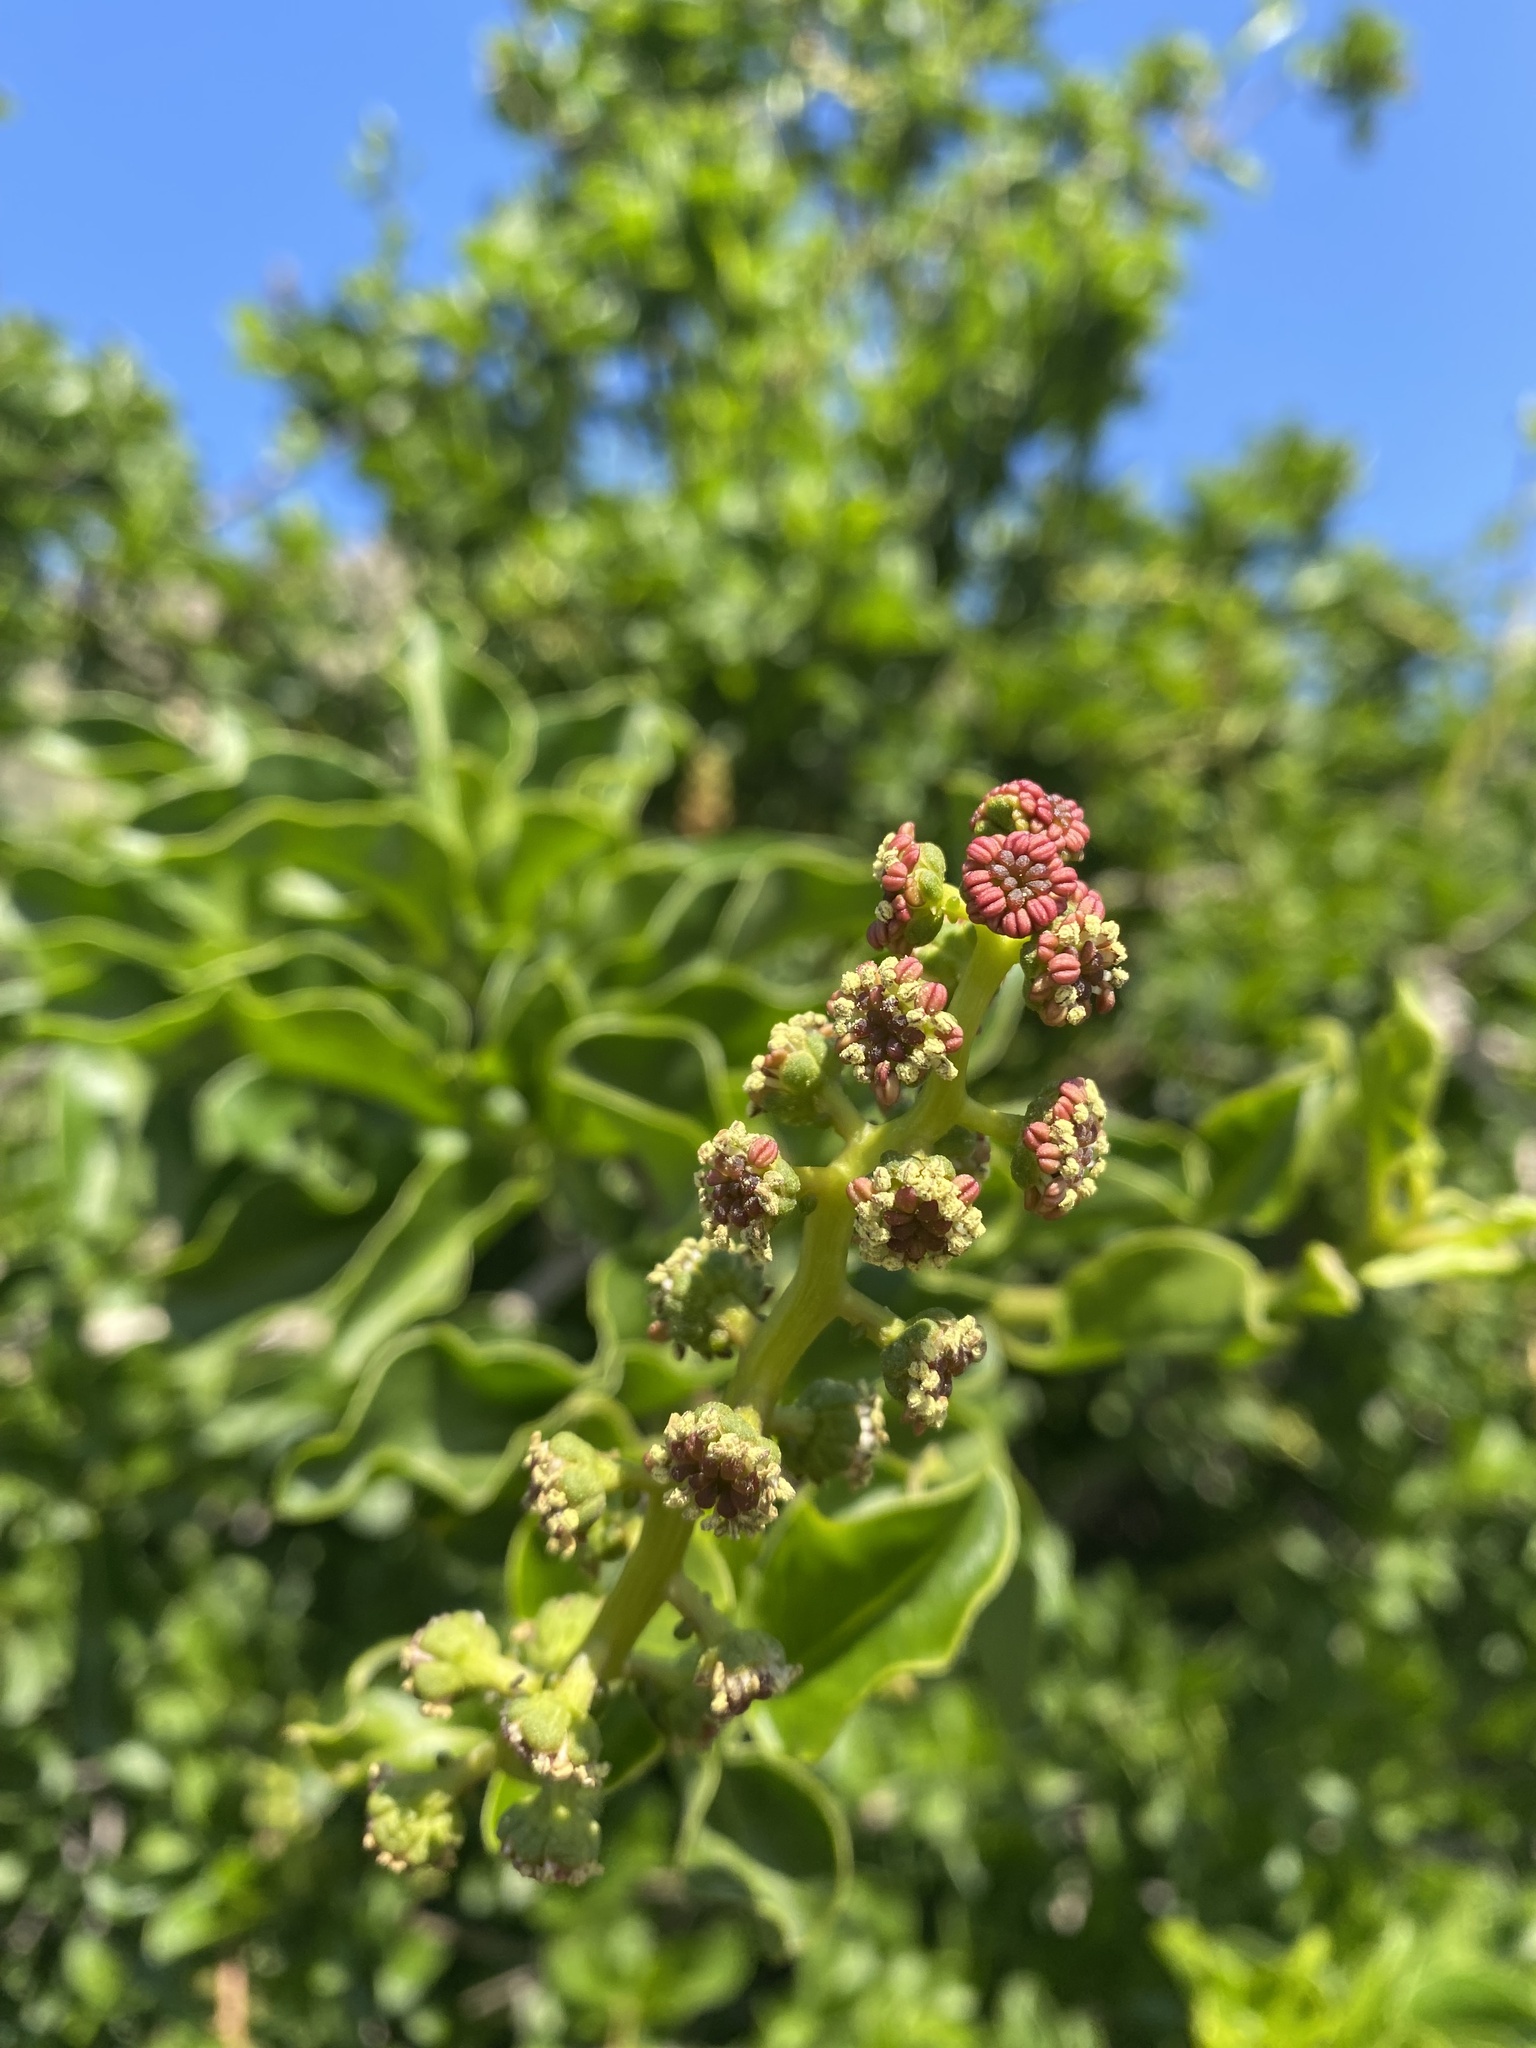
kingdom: Plantae
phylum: Tracheophyta
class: Magnoliopsida
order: Caryophyllales
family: Phytolaccaceae
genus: Anisomeria
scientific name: Anisomeria littoralis
